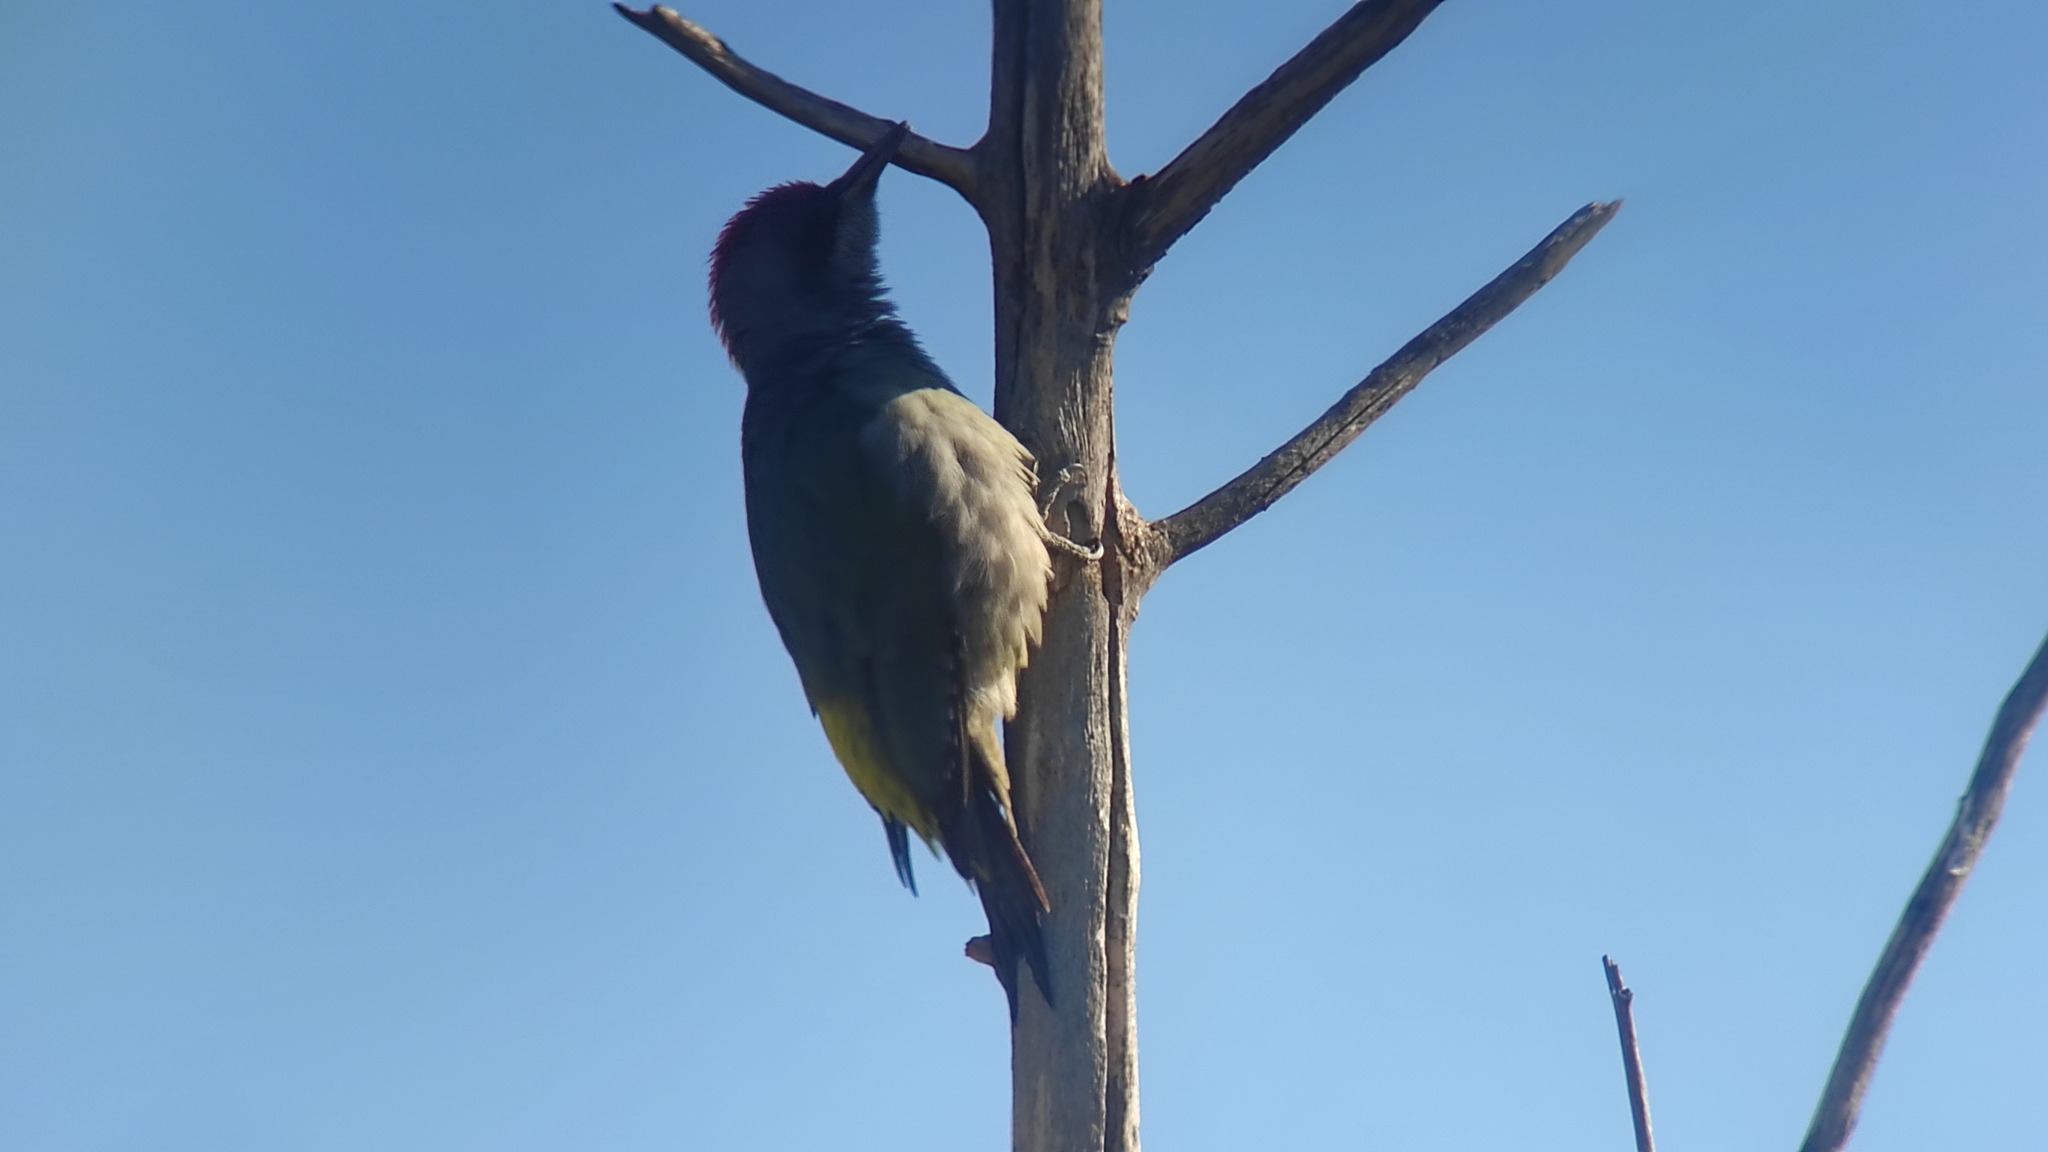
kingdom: Animalia
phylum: Chordata
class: Aves
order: Piciformes
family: Picidae
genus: Picus
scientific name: Picus sharpei
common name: Iberian green woodpecker
